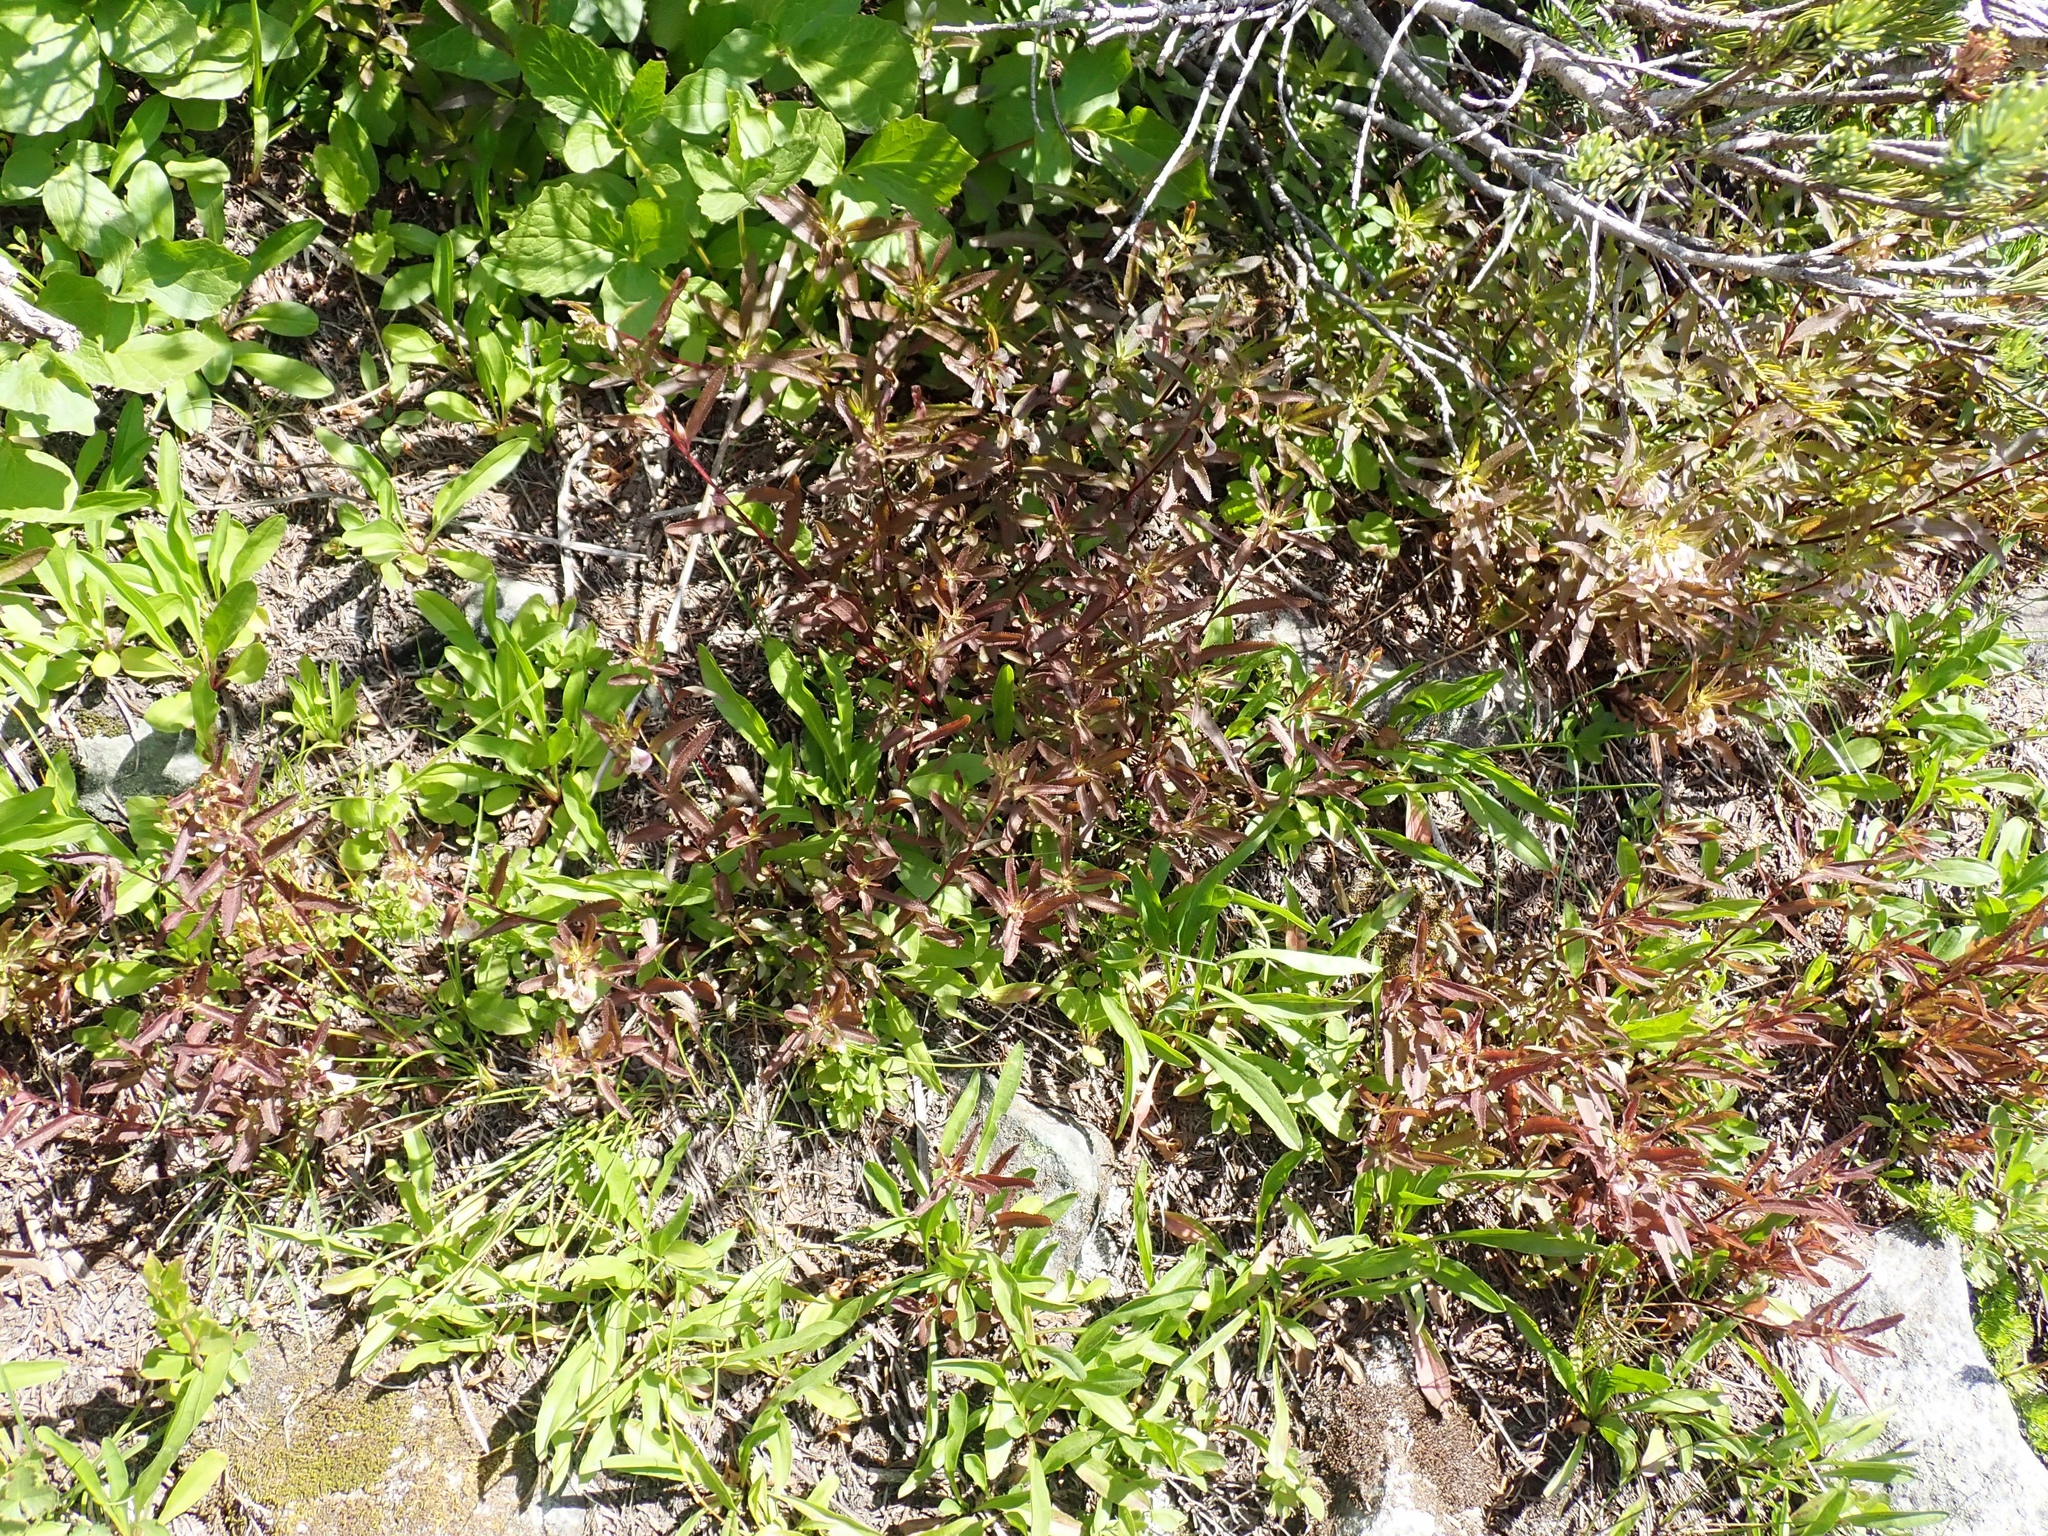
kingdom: Plantae
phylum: Tracheophyta
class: Magnoliopsida
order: Lamiales
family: Orobanchaceae
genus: Pedicularis
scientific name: Pedicularis racemosa
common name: Leafy lousewort
